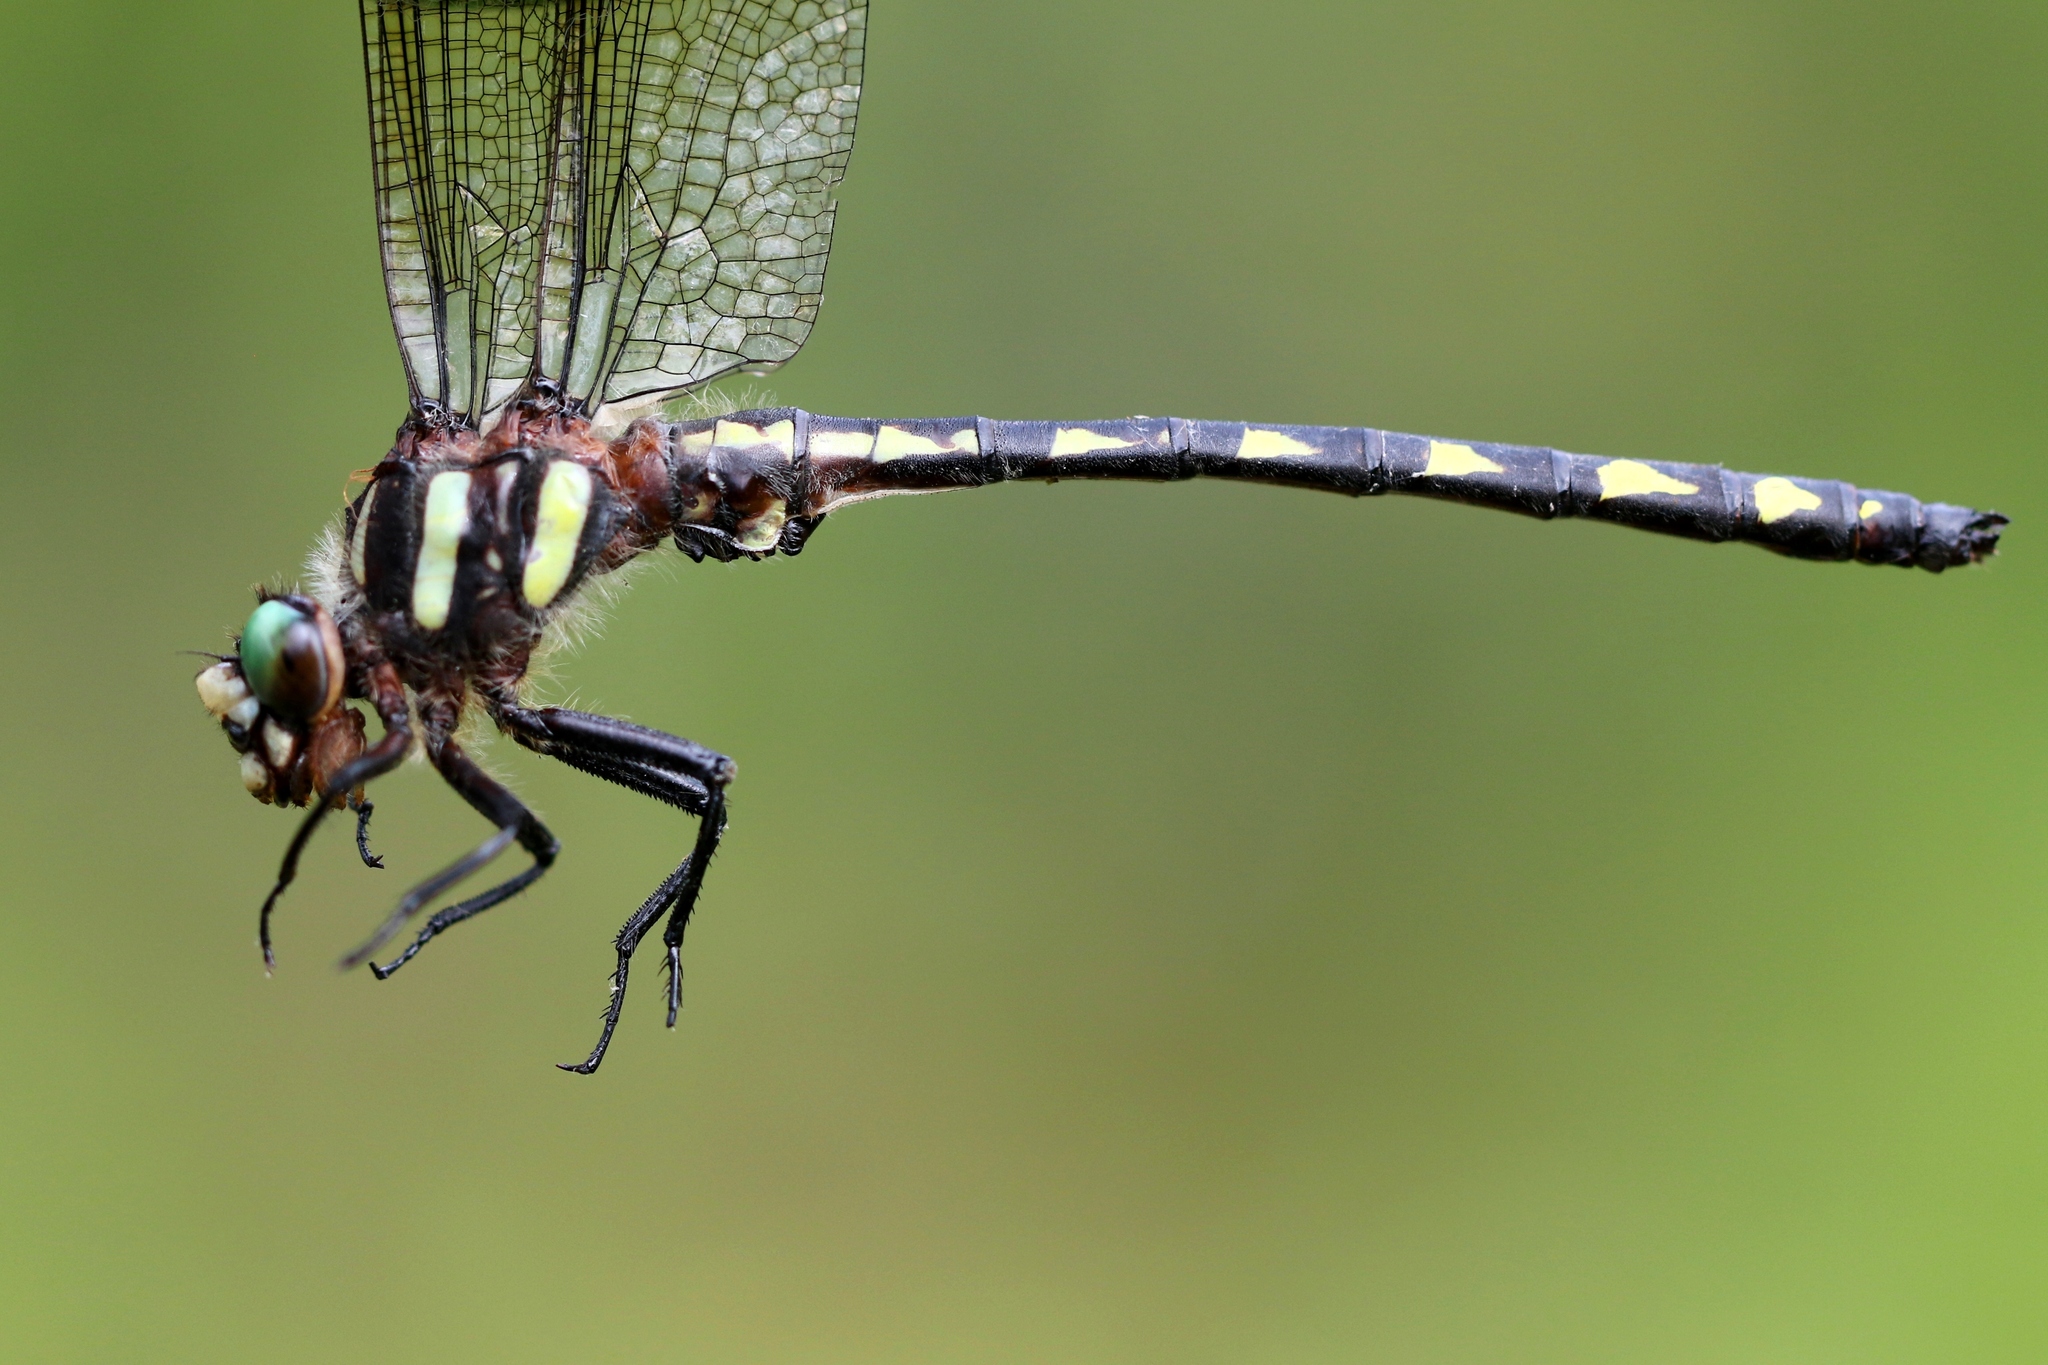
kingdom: Animalia
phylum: Arthropoda
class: Insecta
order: Odonata
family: Cordulegastridae
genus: Cordulegaster
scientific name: Cordulegaster diastatops
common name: Delta-spotted spiketail
